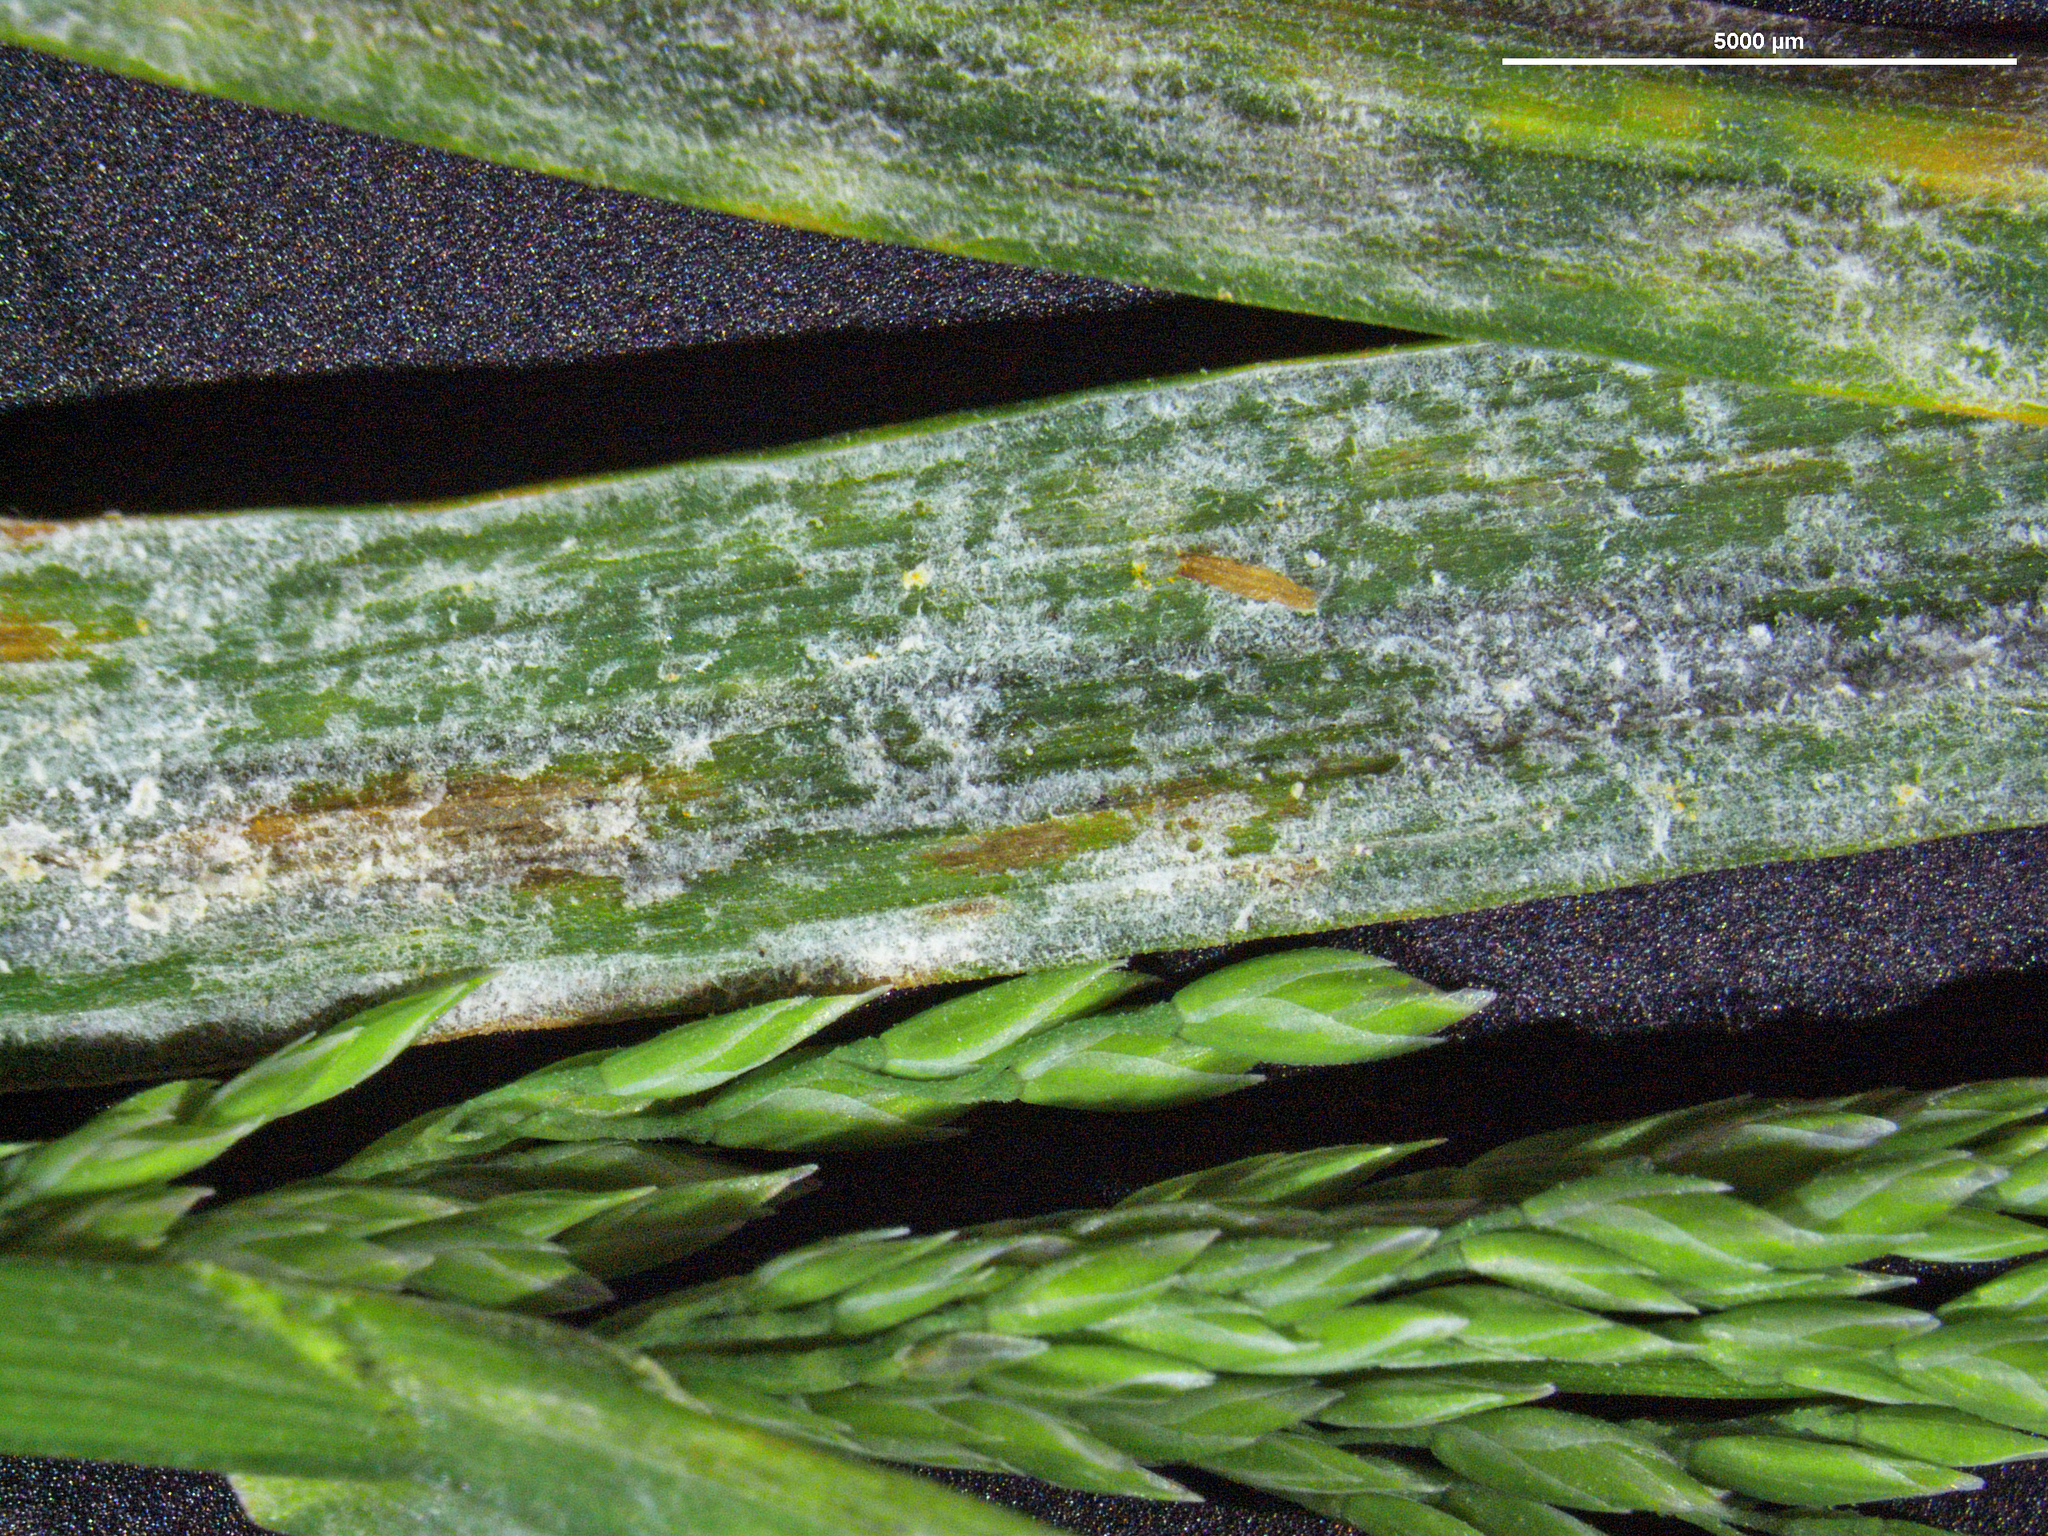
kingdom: Fungi
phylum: Ascomycota
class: Leotiomycetes
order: Helotiales
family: Erysiphaceae
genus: Blumeria
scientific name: Blumeria graminicola
